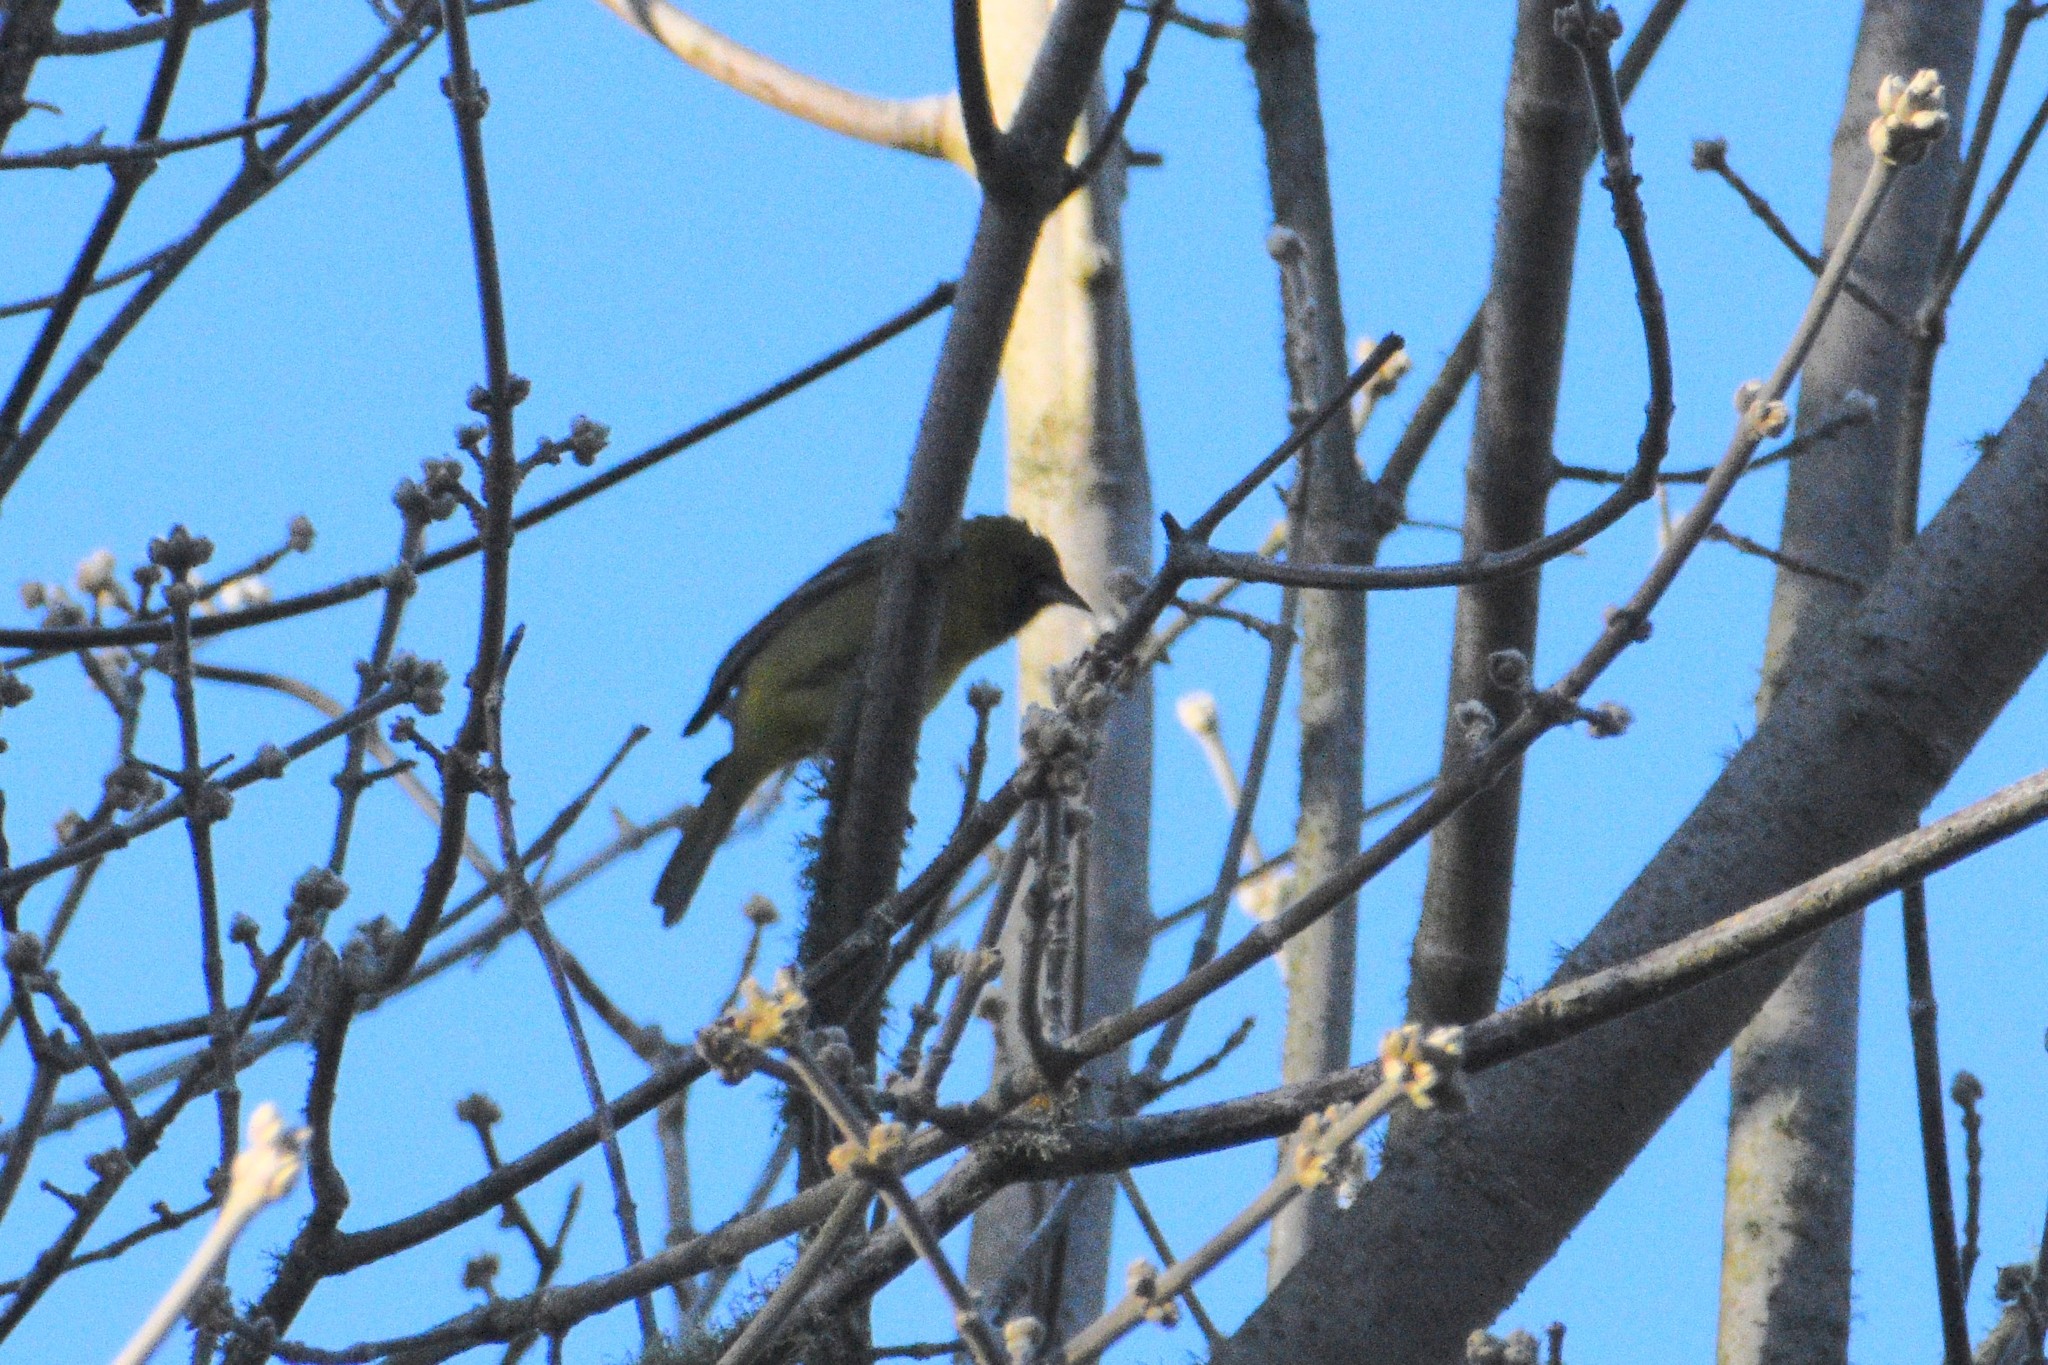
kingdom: Animalia
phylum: Chordata
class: Aves
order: Passeriformes
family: Icteridae
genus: Icterus
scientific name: Icterus spurius
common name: Orchard oriole
